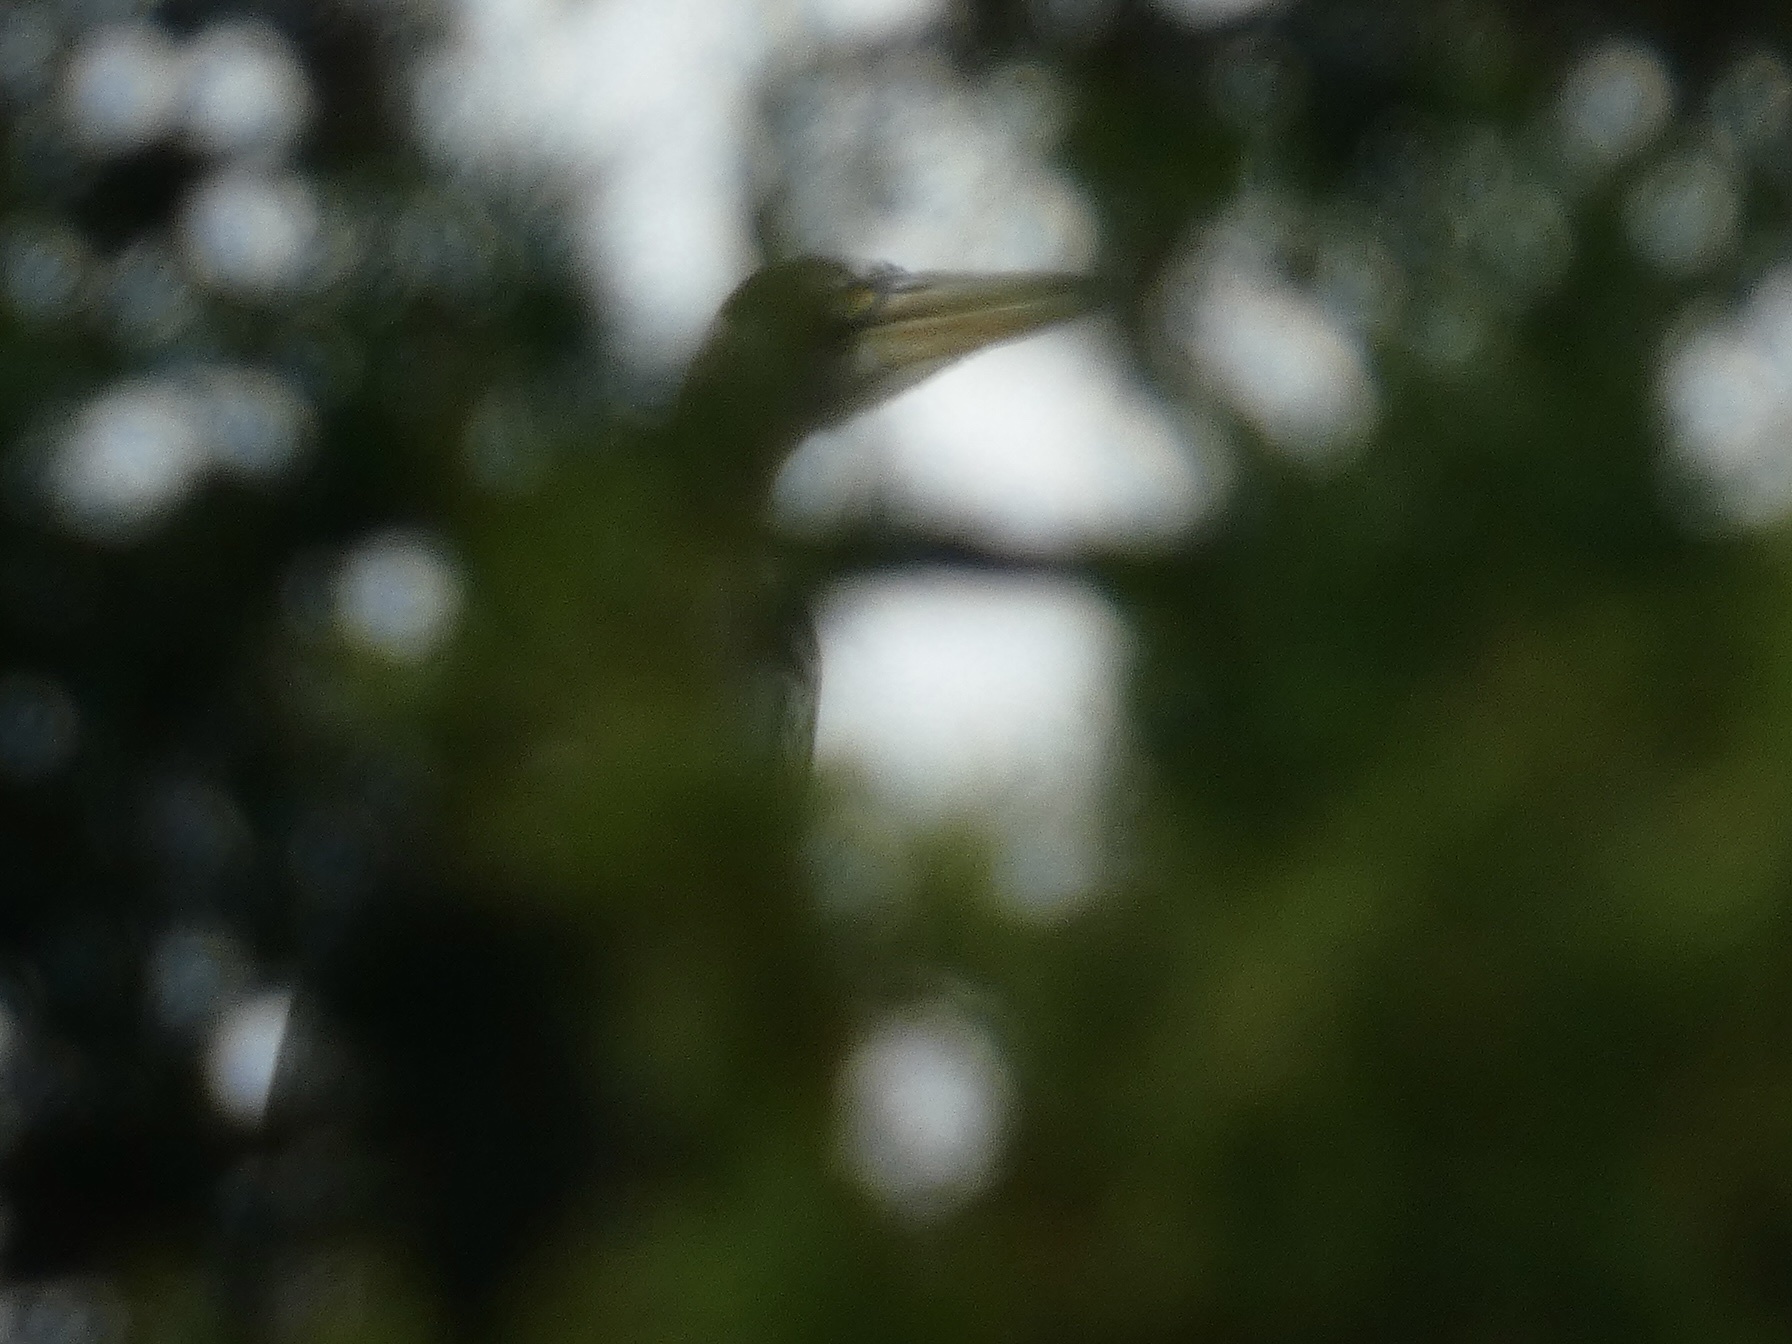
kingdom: Animalia
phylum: Chordata
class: Aves
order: Pelecaniformes
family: Ardeidae
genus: Ardea
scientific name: Ardea cinerea
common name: Grey heron
